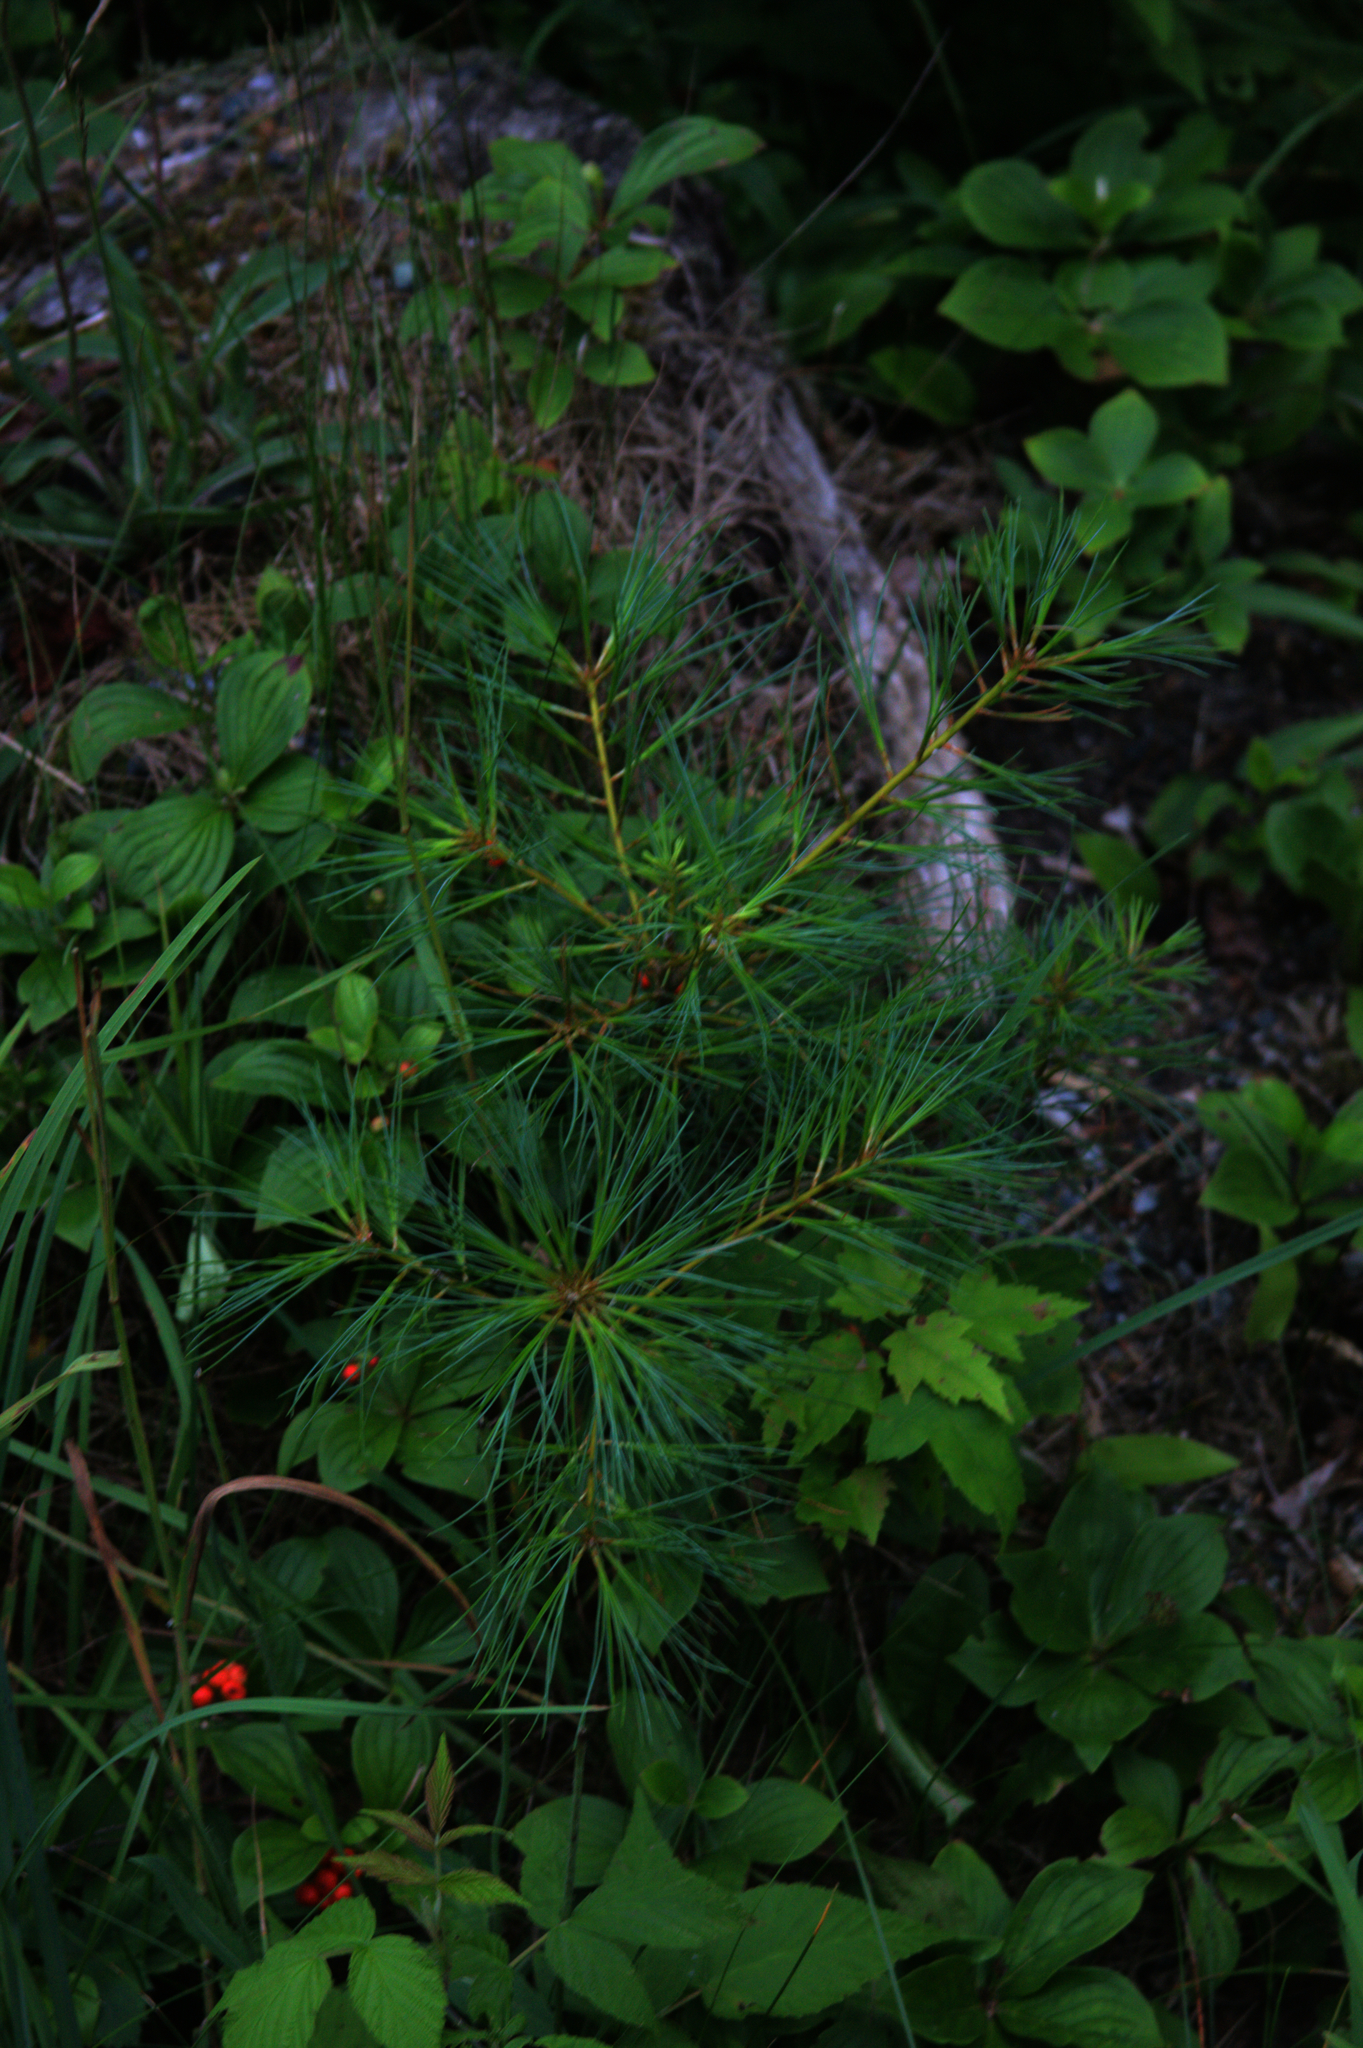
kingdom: Plantae
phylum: Tracheophyta
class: Pinopsida
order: Pinales
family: Pinaceae
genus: Pinus
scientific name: Pinus strobus
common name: Weymouth pine
